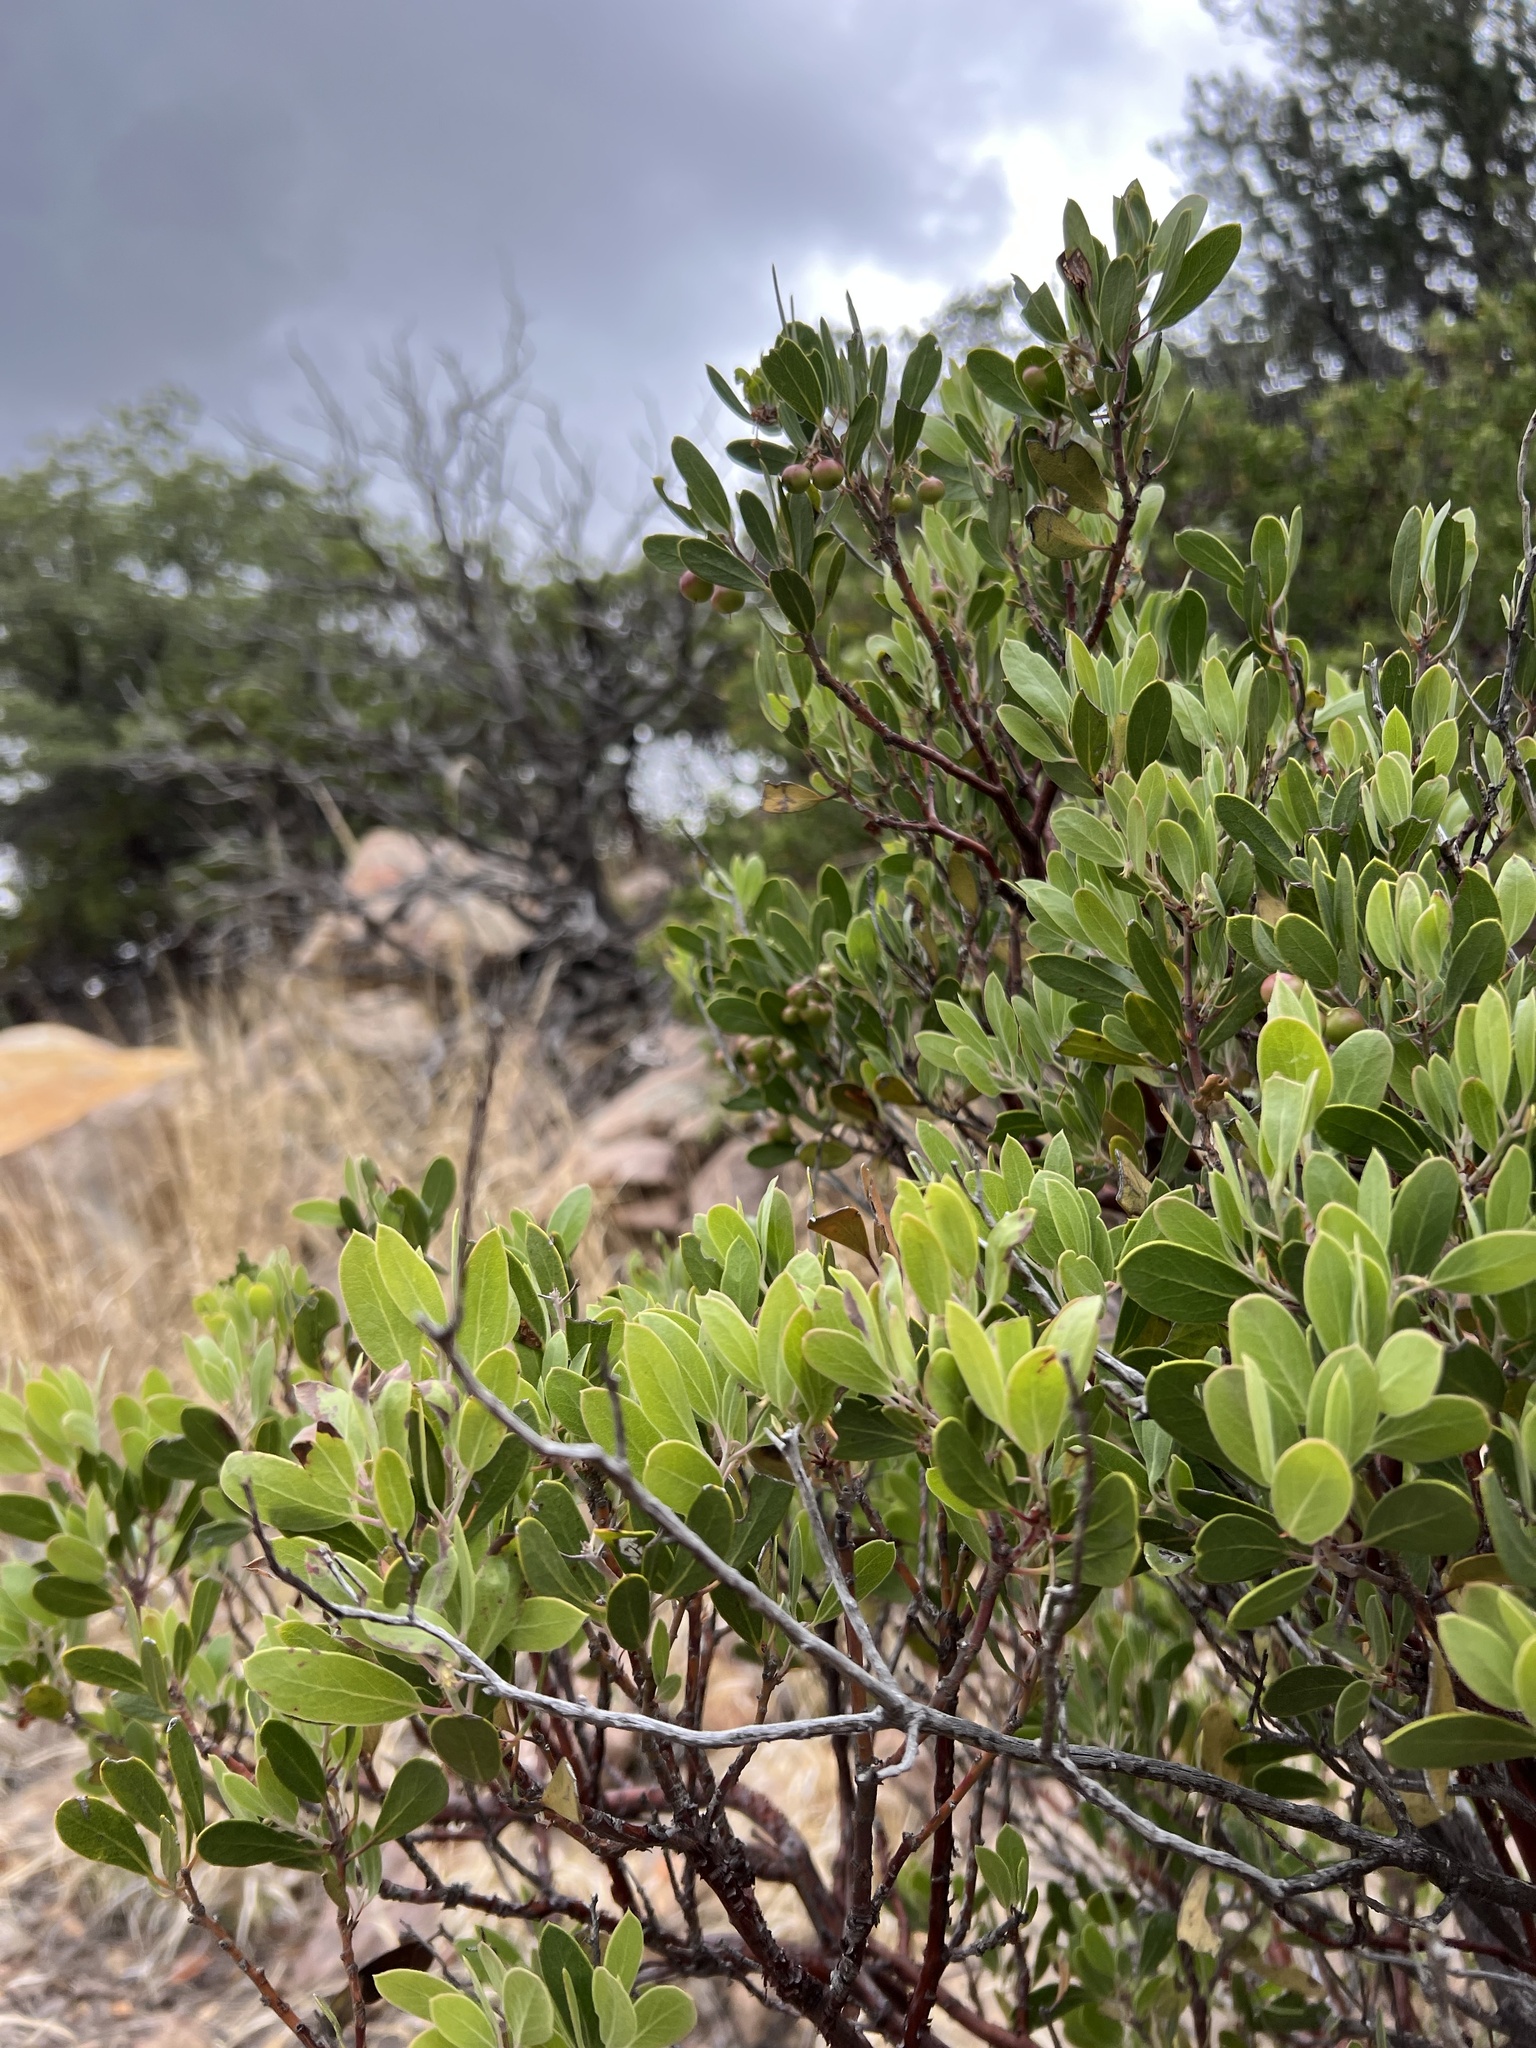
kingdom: Plantae
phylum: Tracheophyta
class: Magnoliopsida
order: Ericales
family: Ericaceae
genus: Arctostaphylos
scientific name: Arctostaphylos pungens
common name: Mexican manzanita
